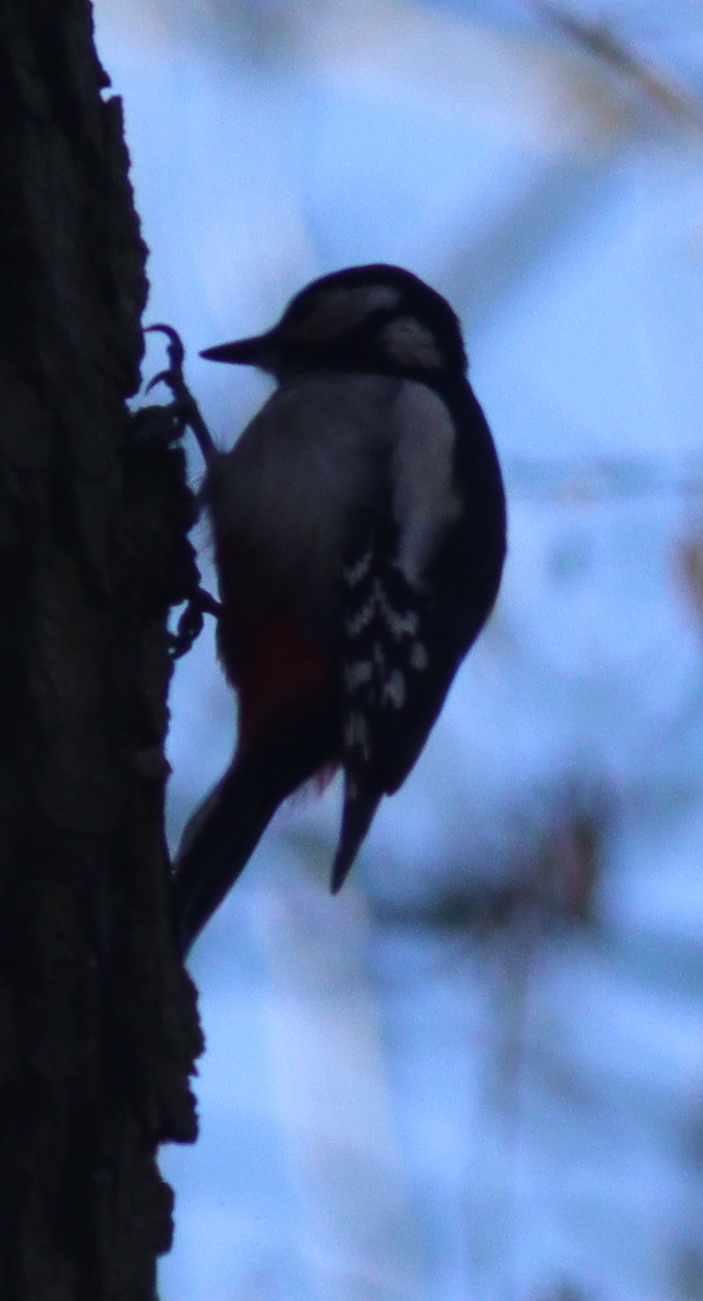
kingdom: Animalia
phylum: Chordata
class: Aves
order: Piciformes
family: Picidae
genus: Dendrocopos
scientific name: Dendrocopos major
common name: Great spotted woodpecker
